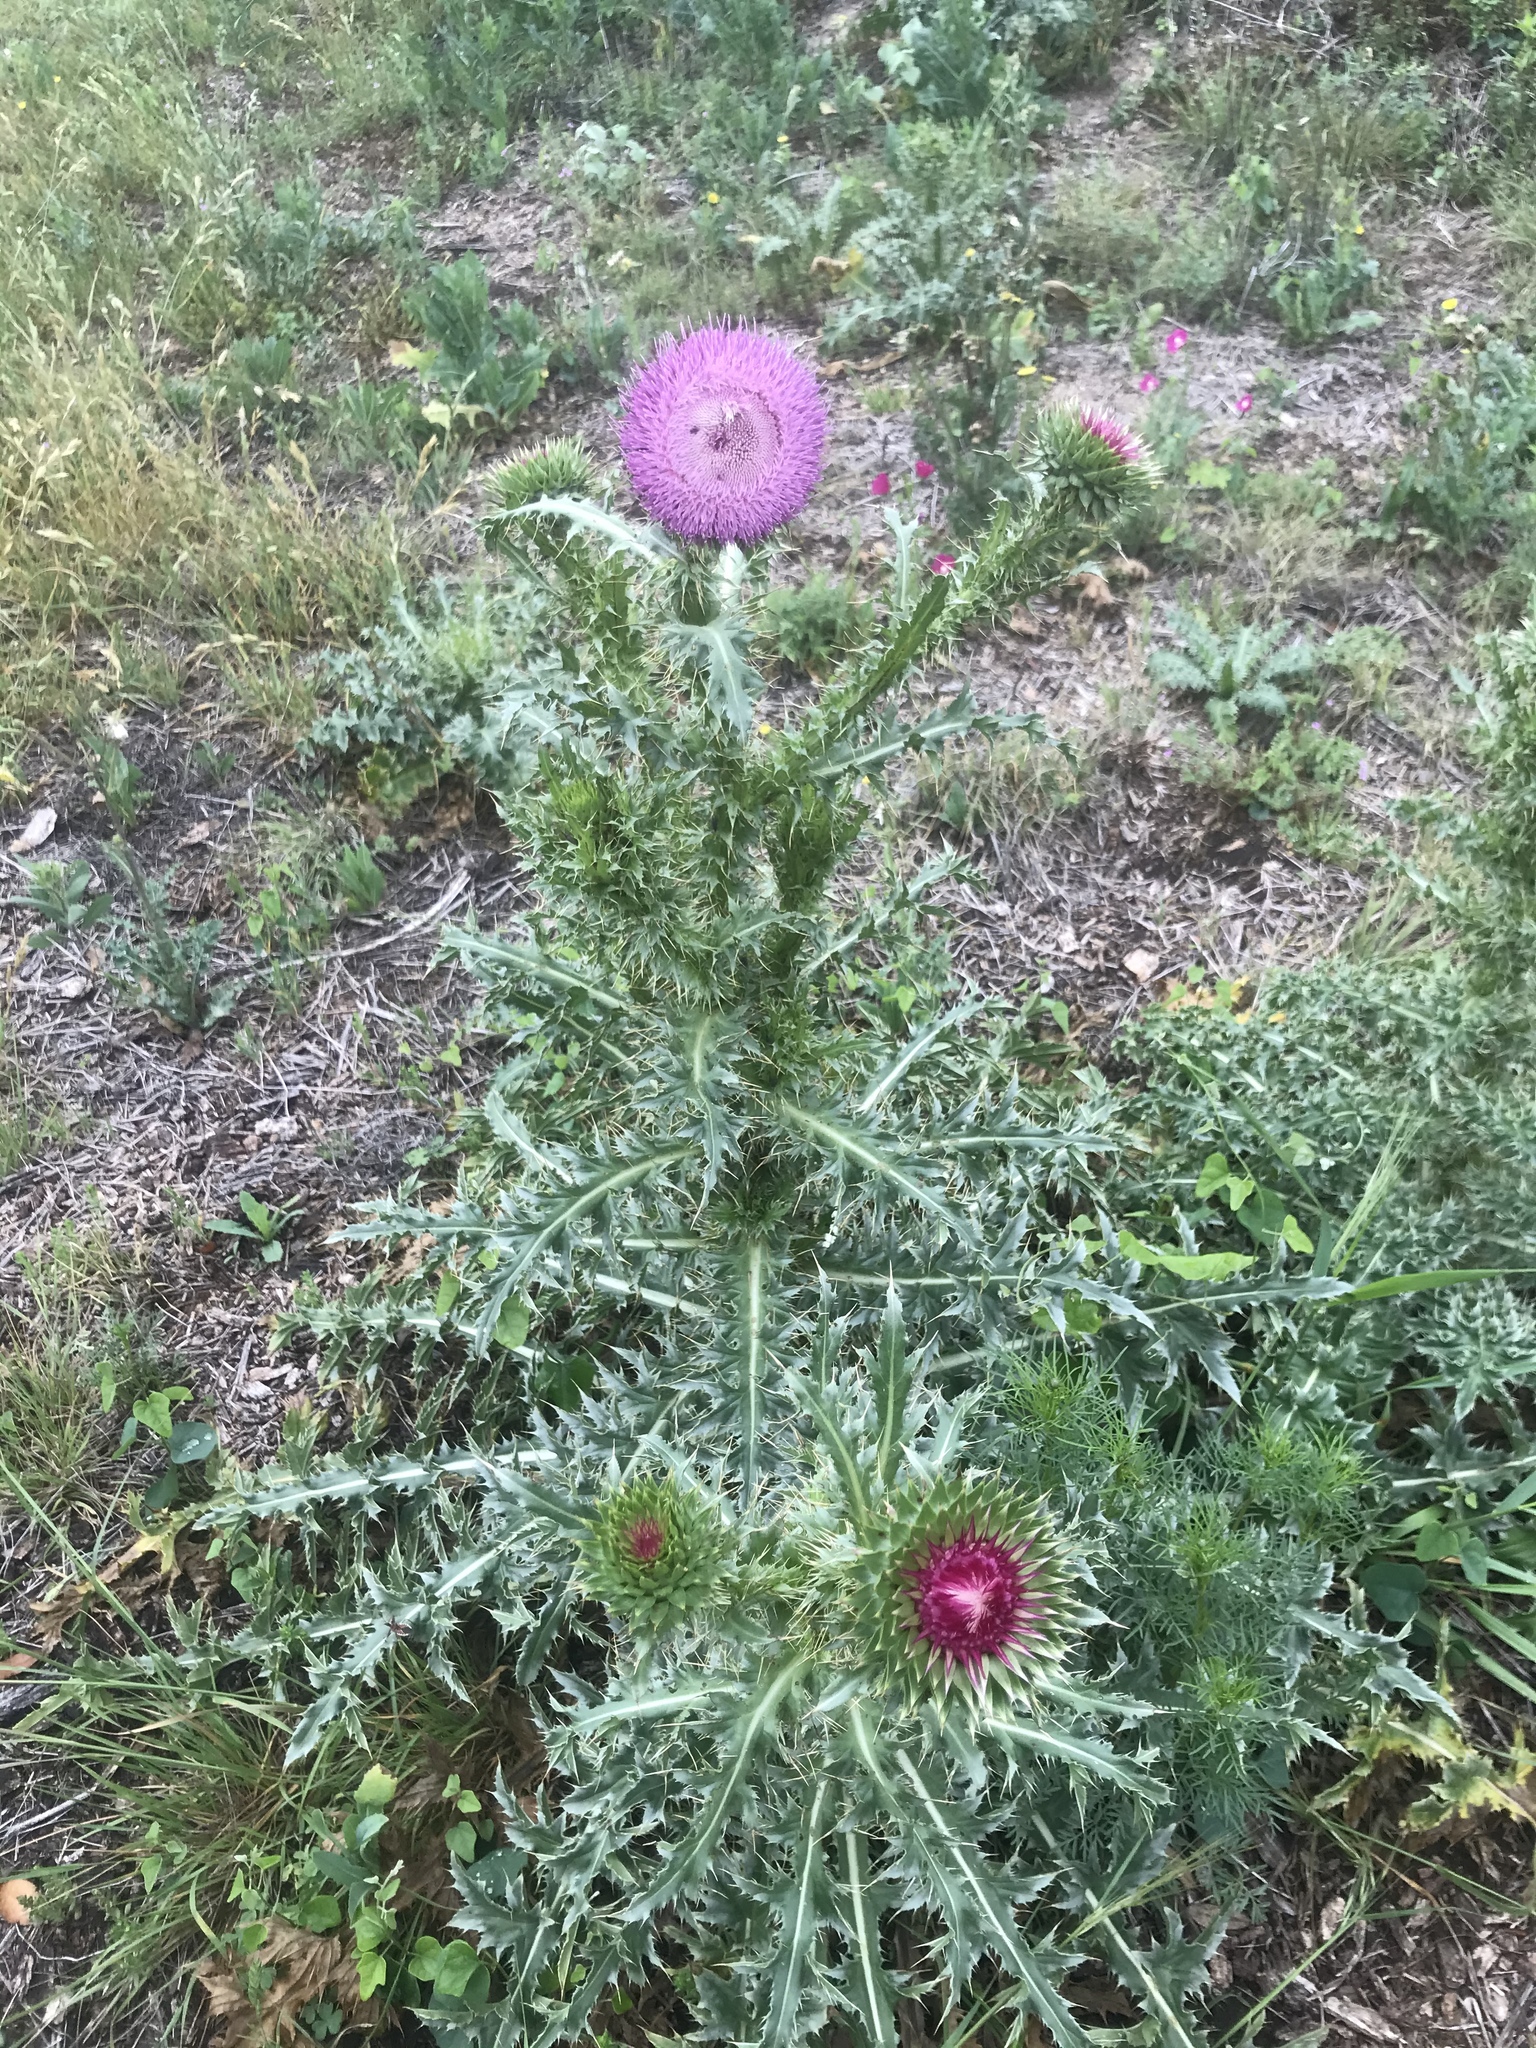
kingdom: Plantae
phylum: Tracheophyta
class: Magnoliopsida
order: Asterales
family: Asteraceae
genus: Carduus
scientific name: Carduus nutans
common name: Musk thistle
